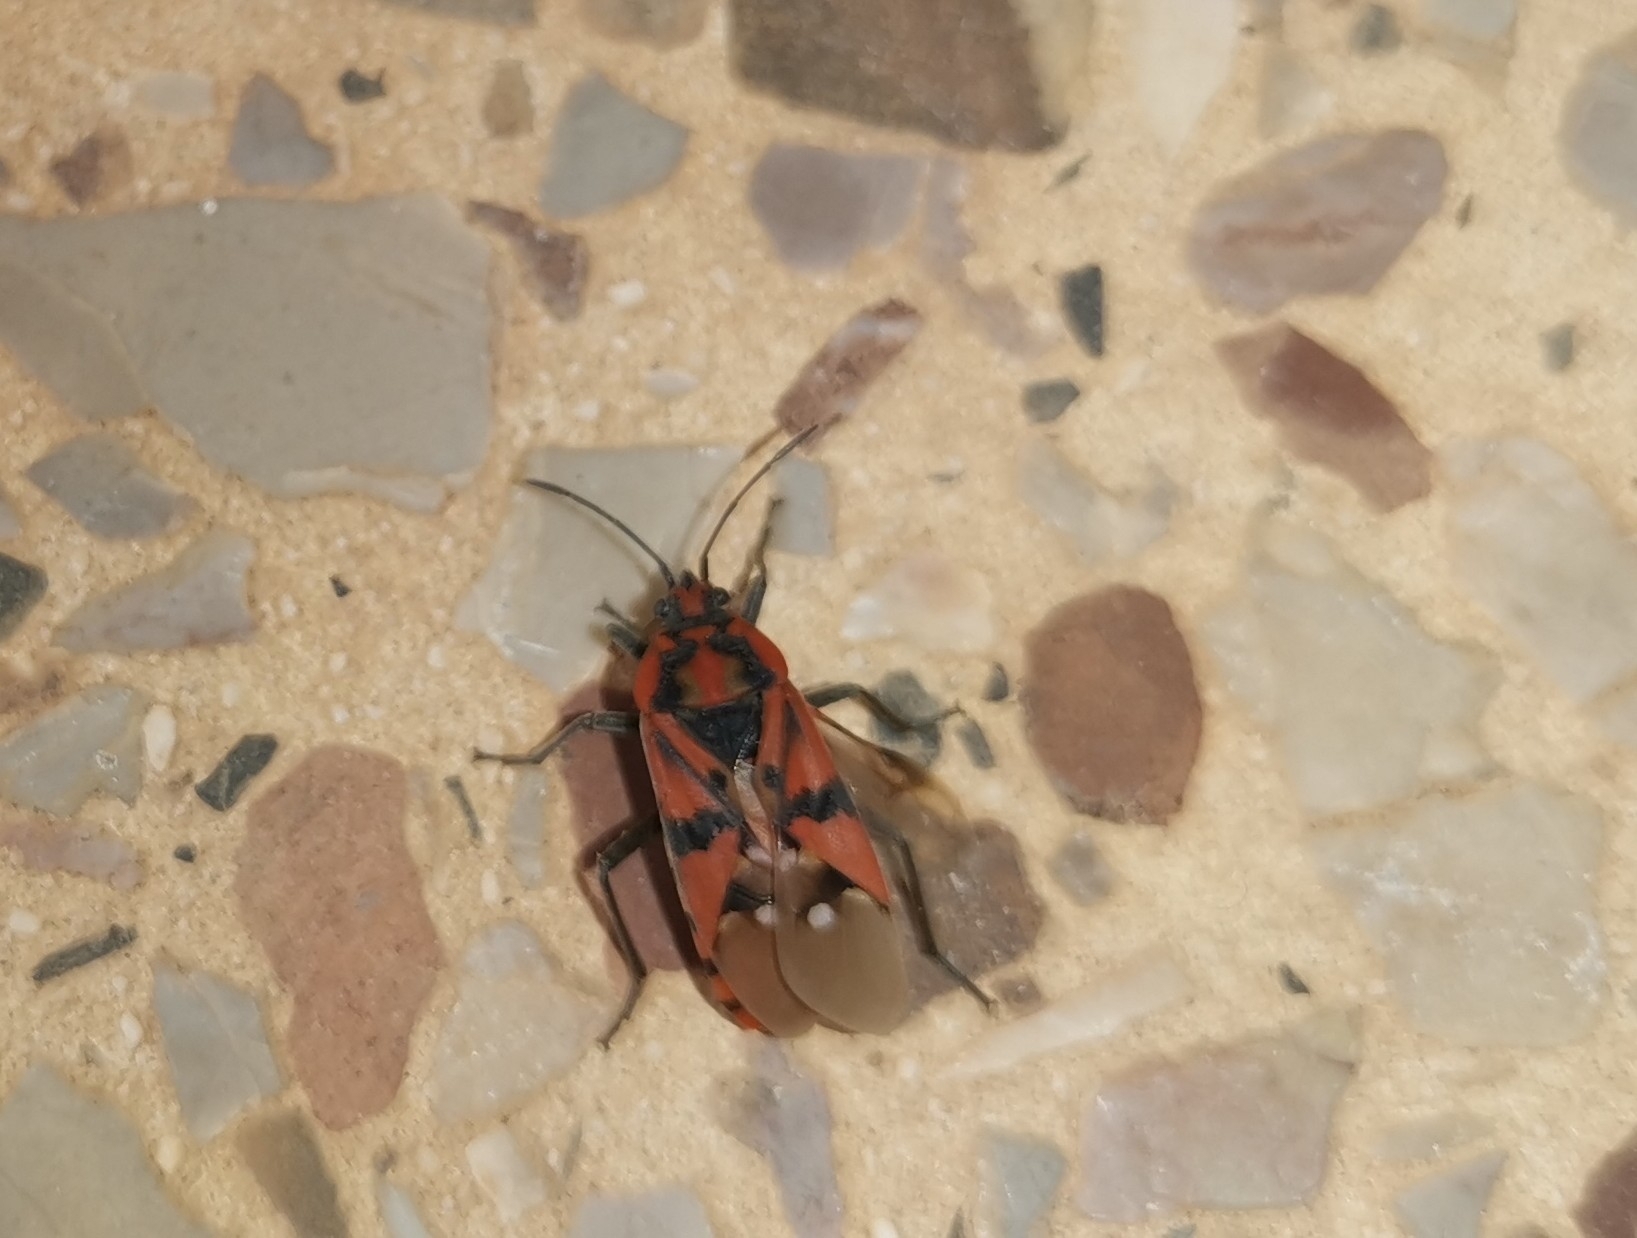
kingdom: Animalia
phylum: Arthropoda
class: Insecta
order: Hemiptera
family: Lygaeidae
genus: Spilostethus
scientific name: Spilostethus pandurus
